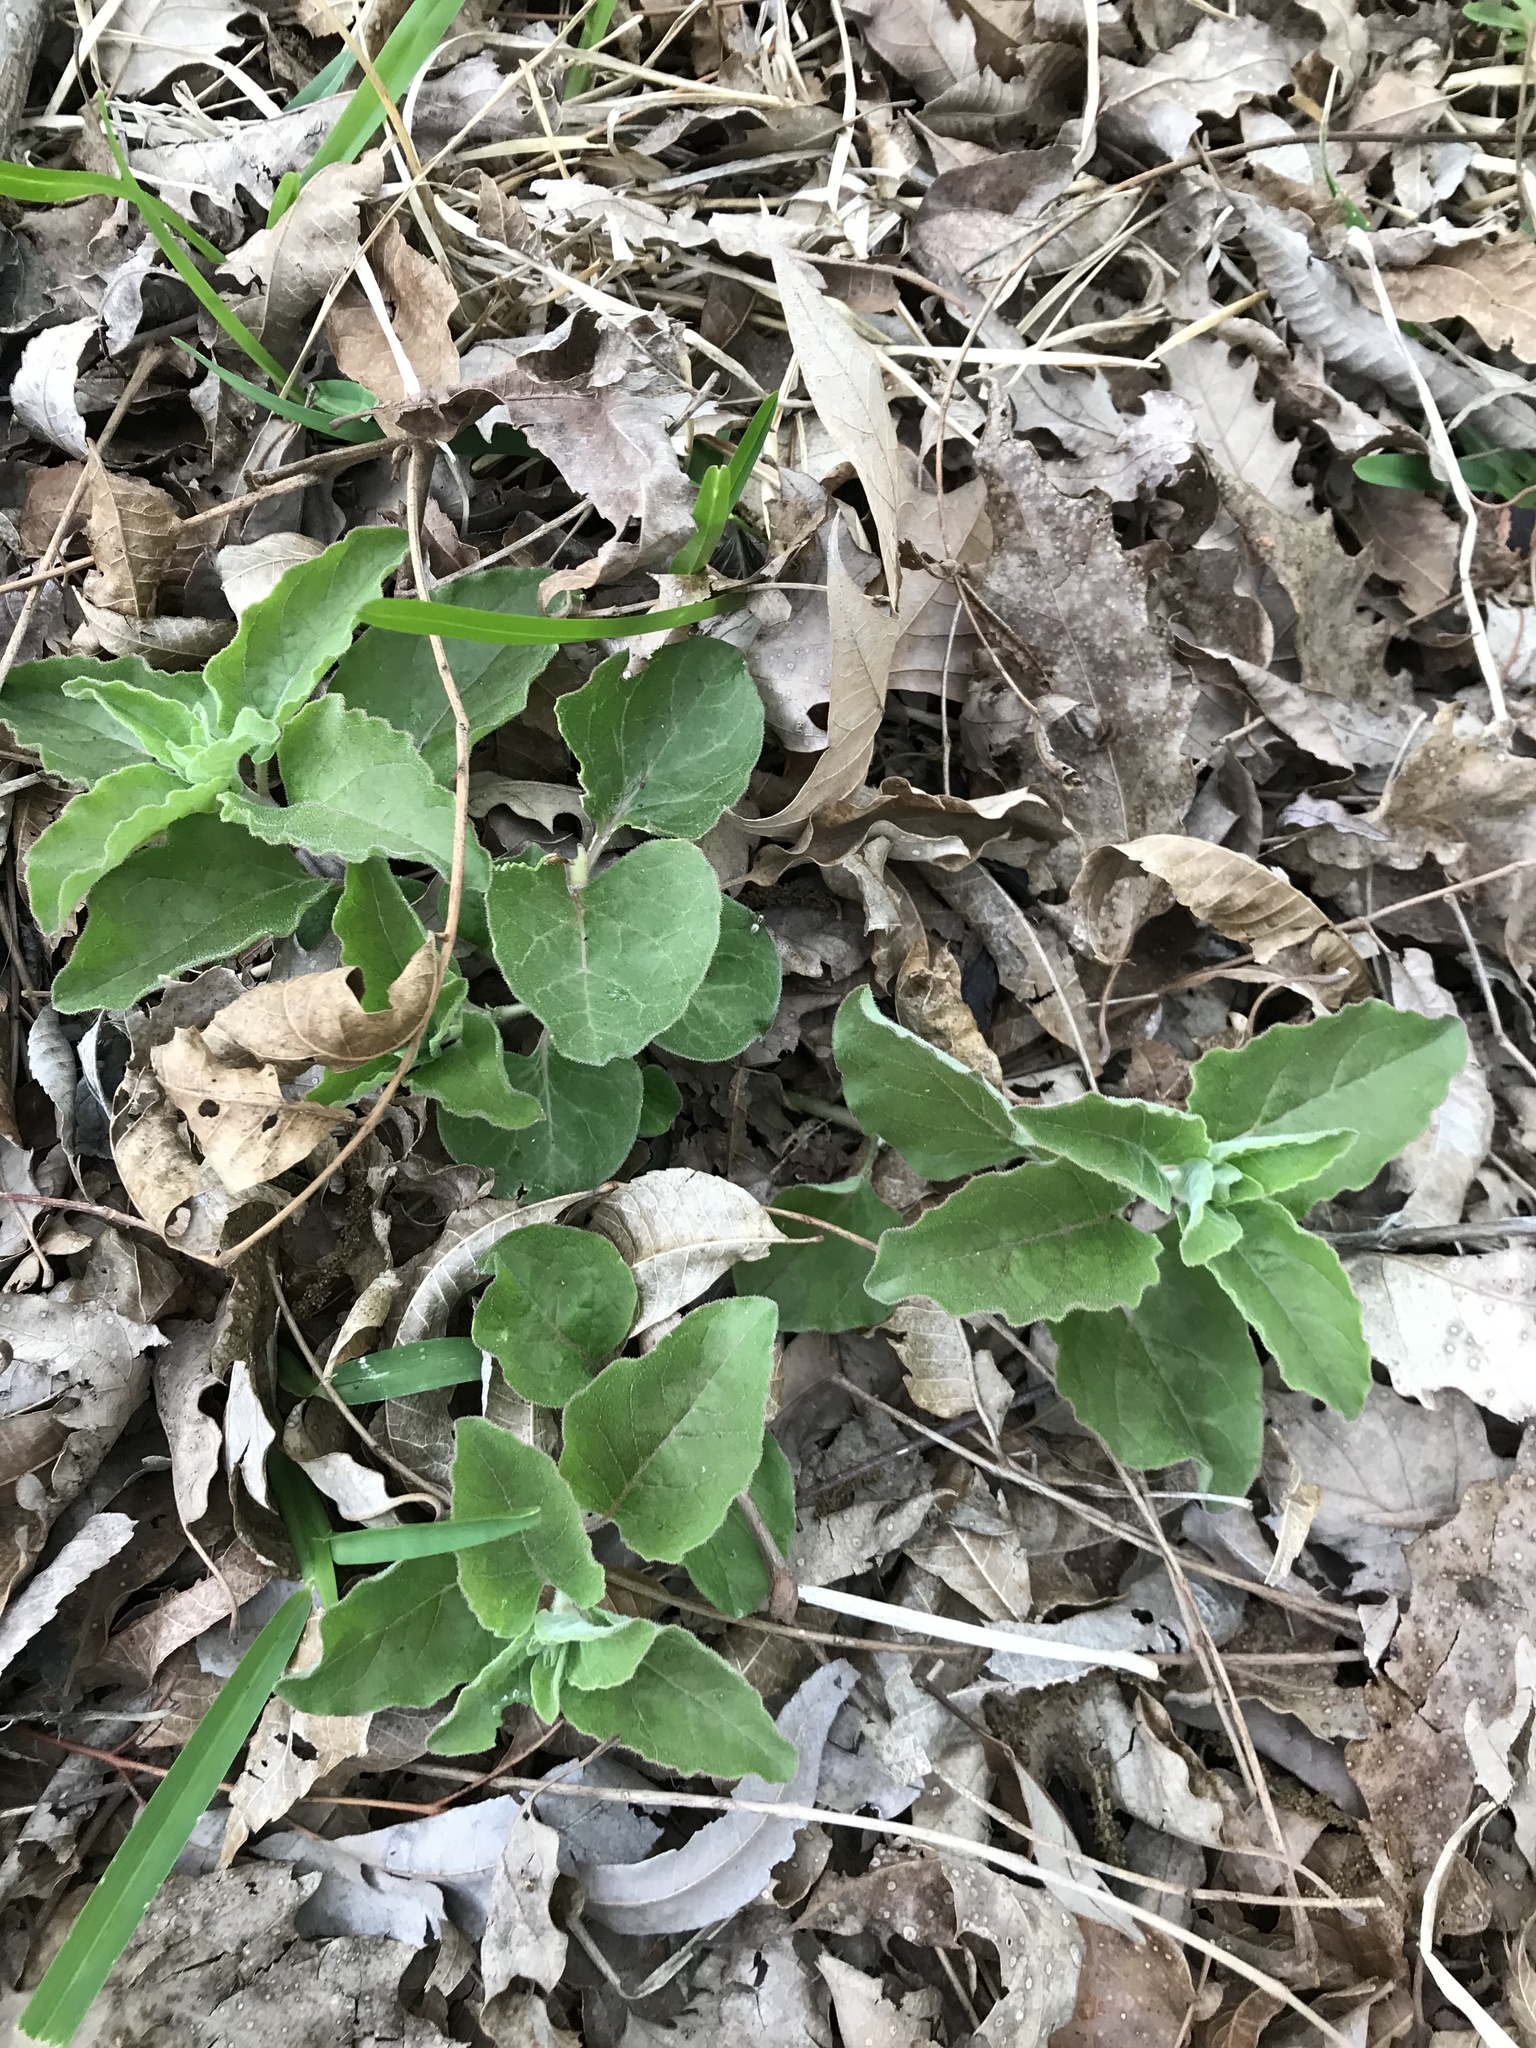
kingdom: Plantae
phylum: Tracheophyta
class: Magnoliopsida
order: Gentianales
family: Apocynaceae
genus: Asclepias
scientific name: Asclepias oenotheroides
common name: Zizotes milkweed
